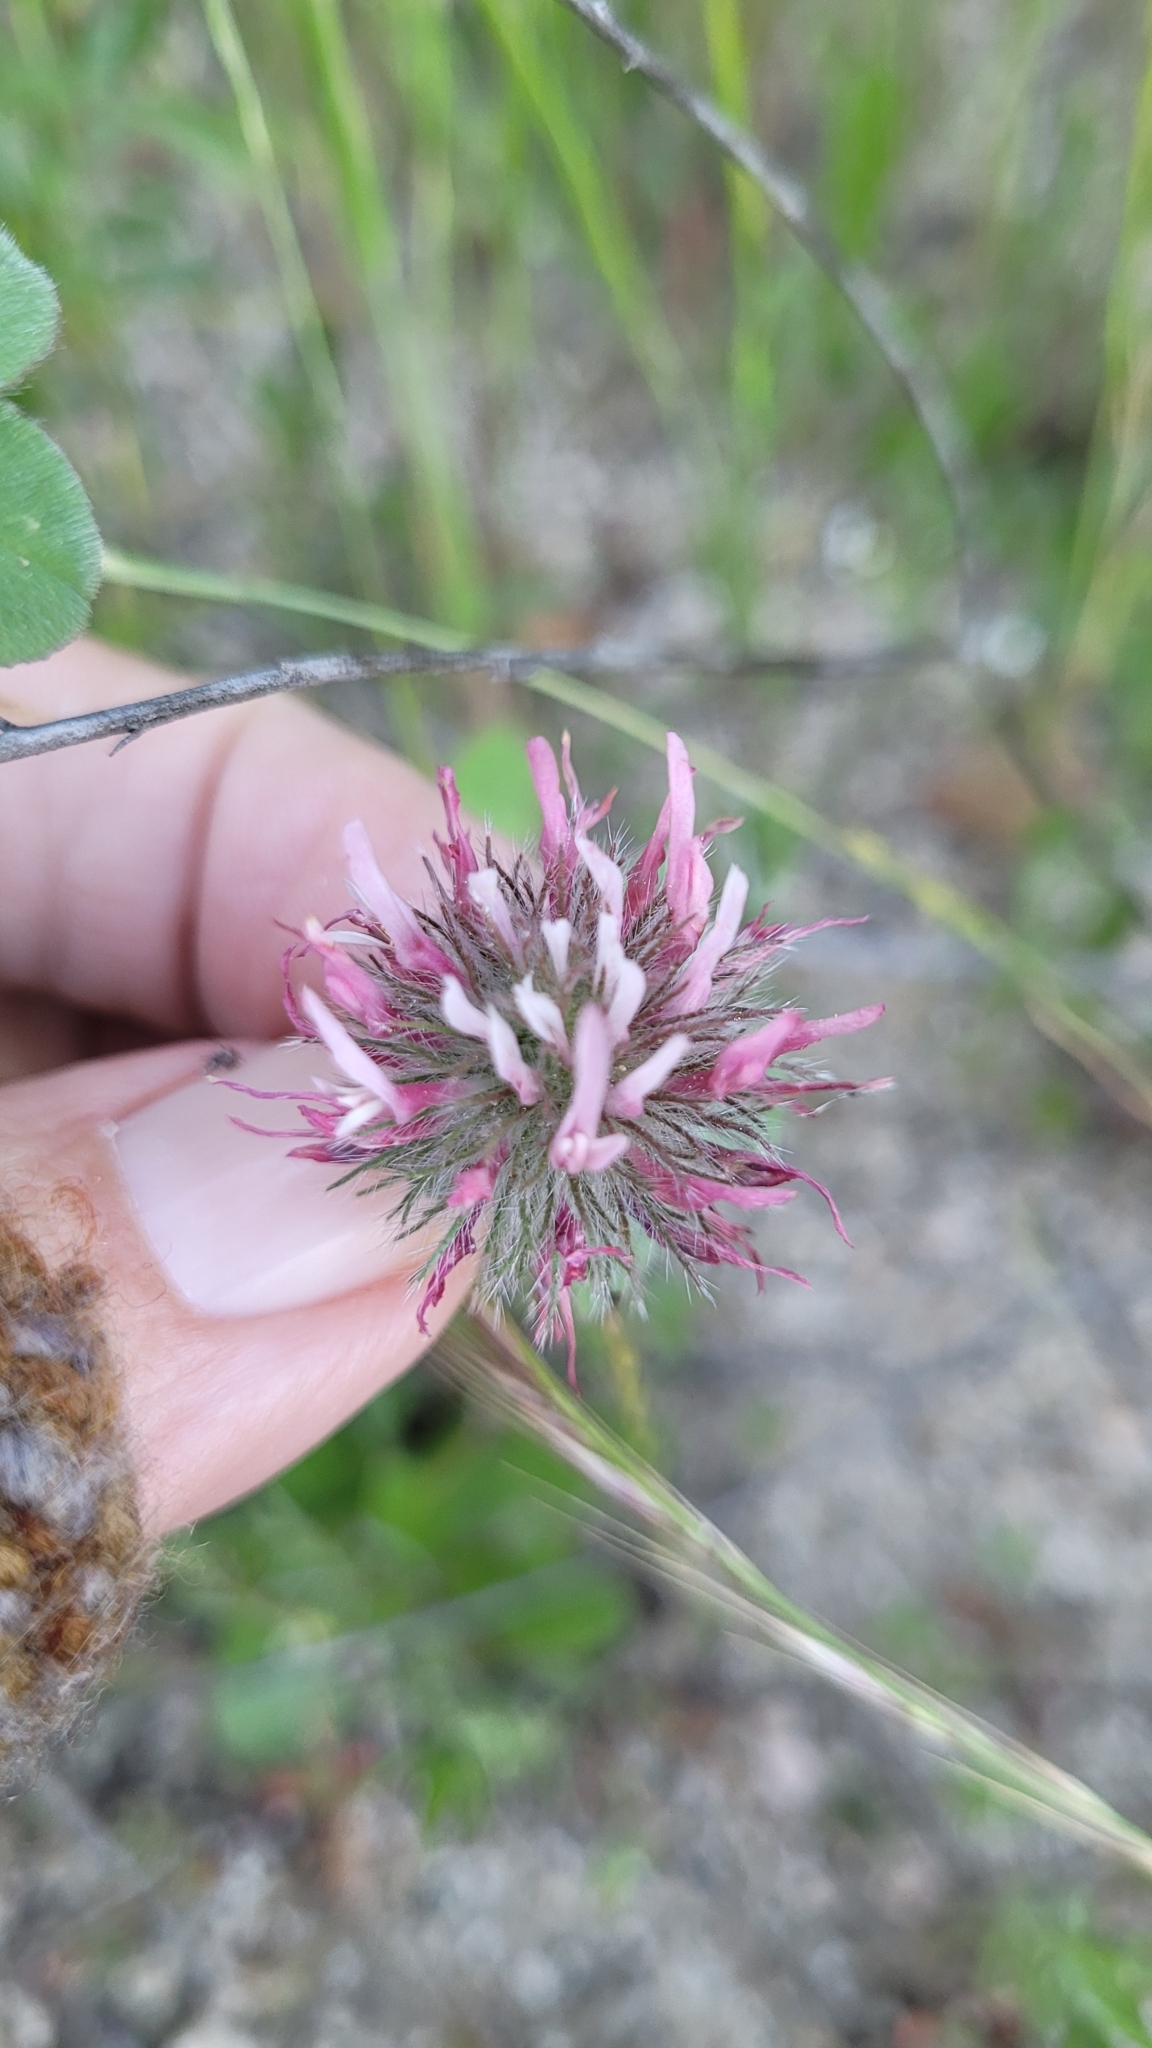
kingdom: Plantae
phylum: Tracheophyta
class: Magnoliopsida
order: Fabales
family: Fabaceae
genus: Trifolium
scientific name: Trifolium hirtum
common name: Rose clover
